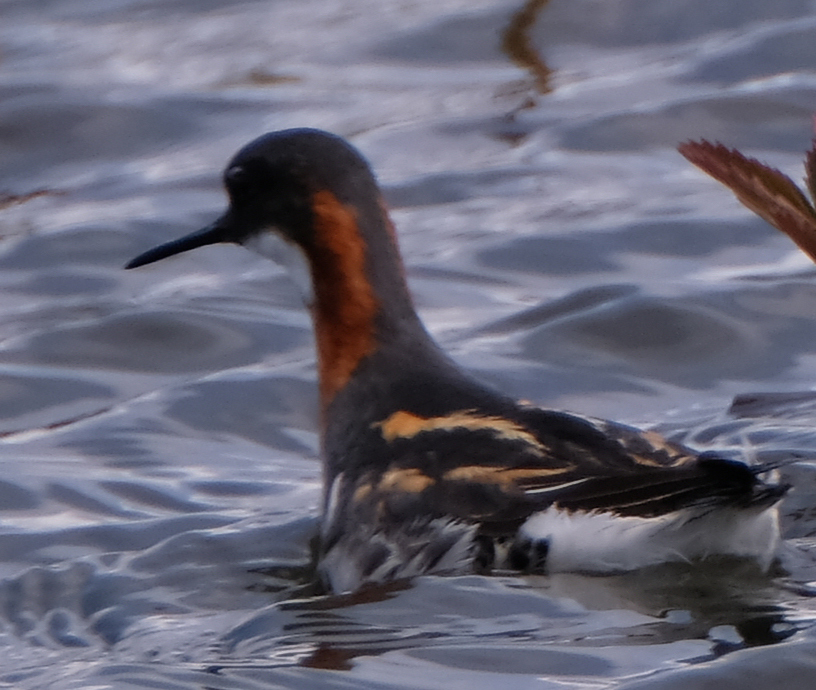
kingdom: Animalia
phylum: Chordata
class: Aves
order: Charadriiformes
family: Scolopacidae
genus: Phalaropus
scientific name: Phalaropus lobatus
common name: Red-necked phalarope
